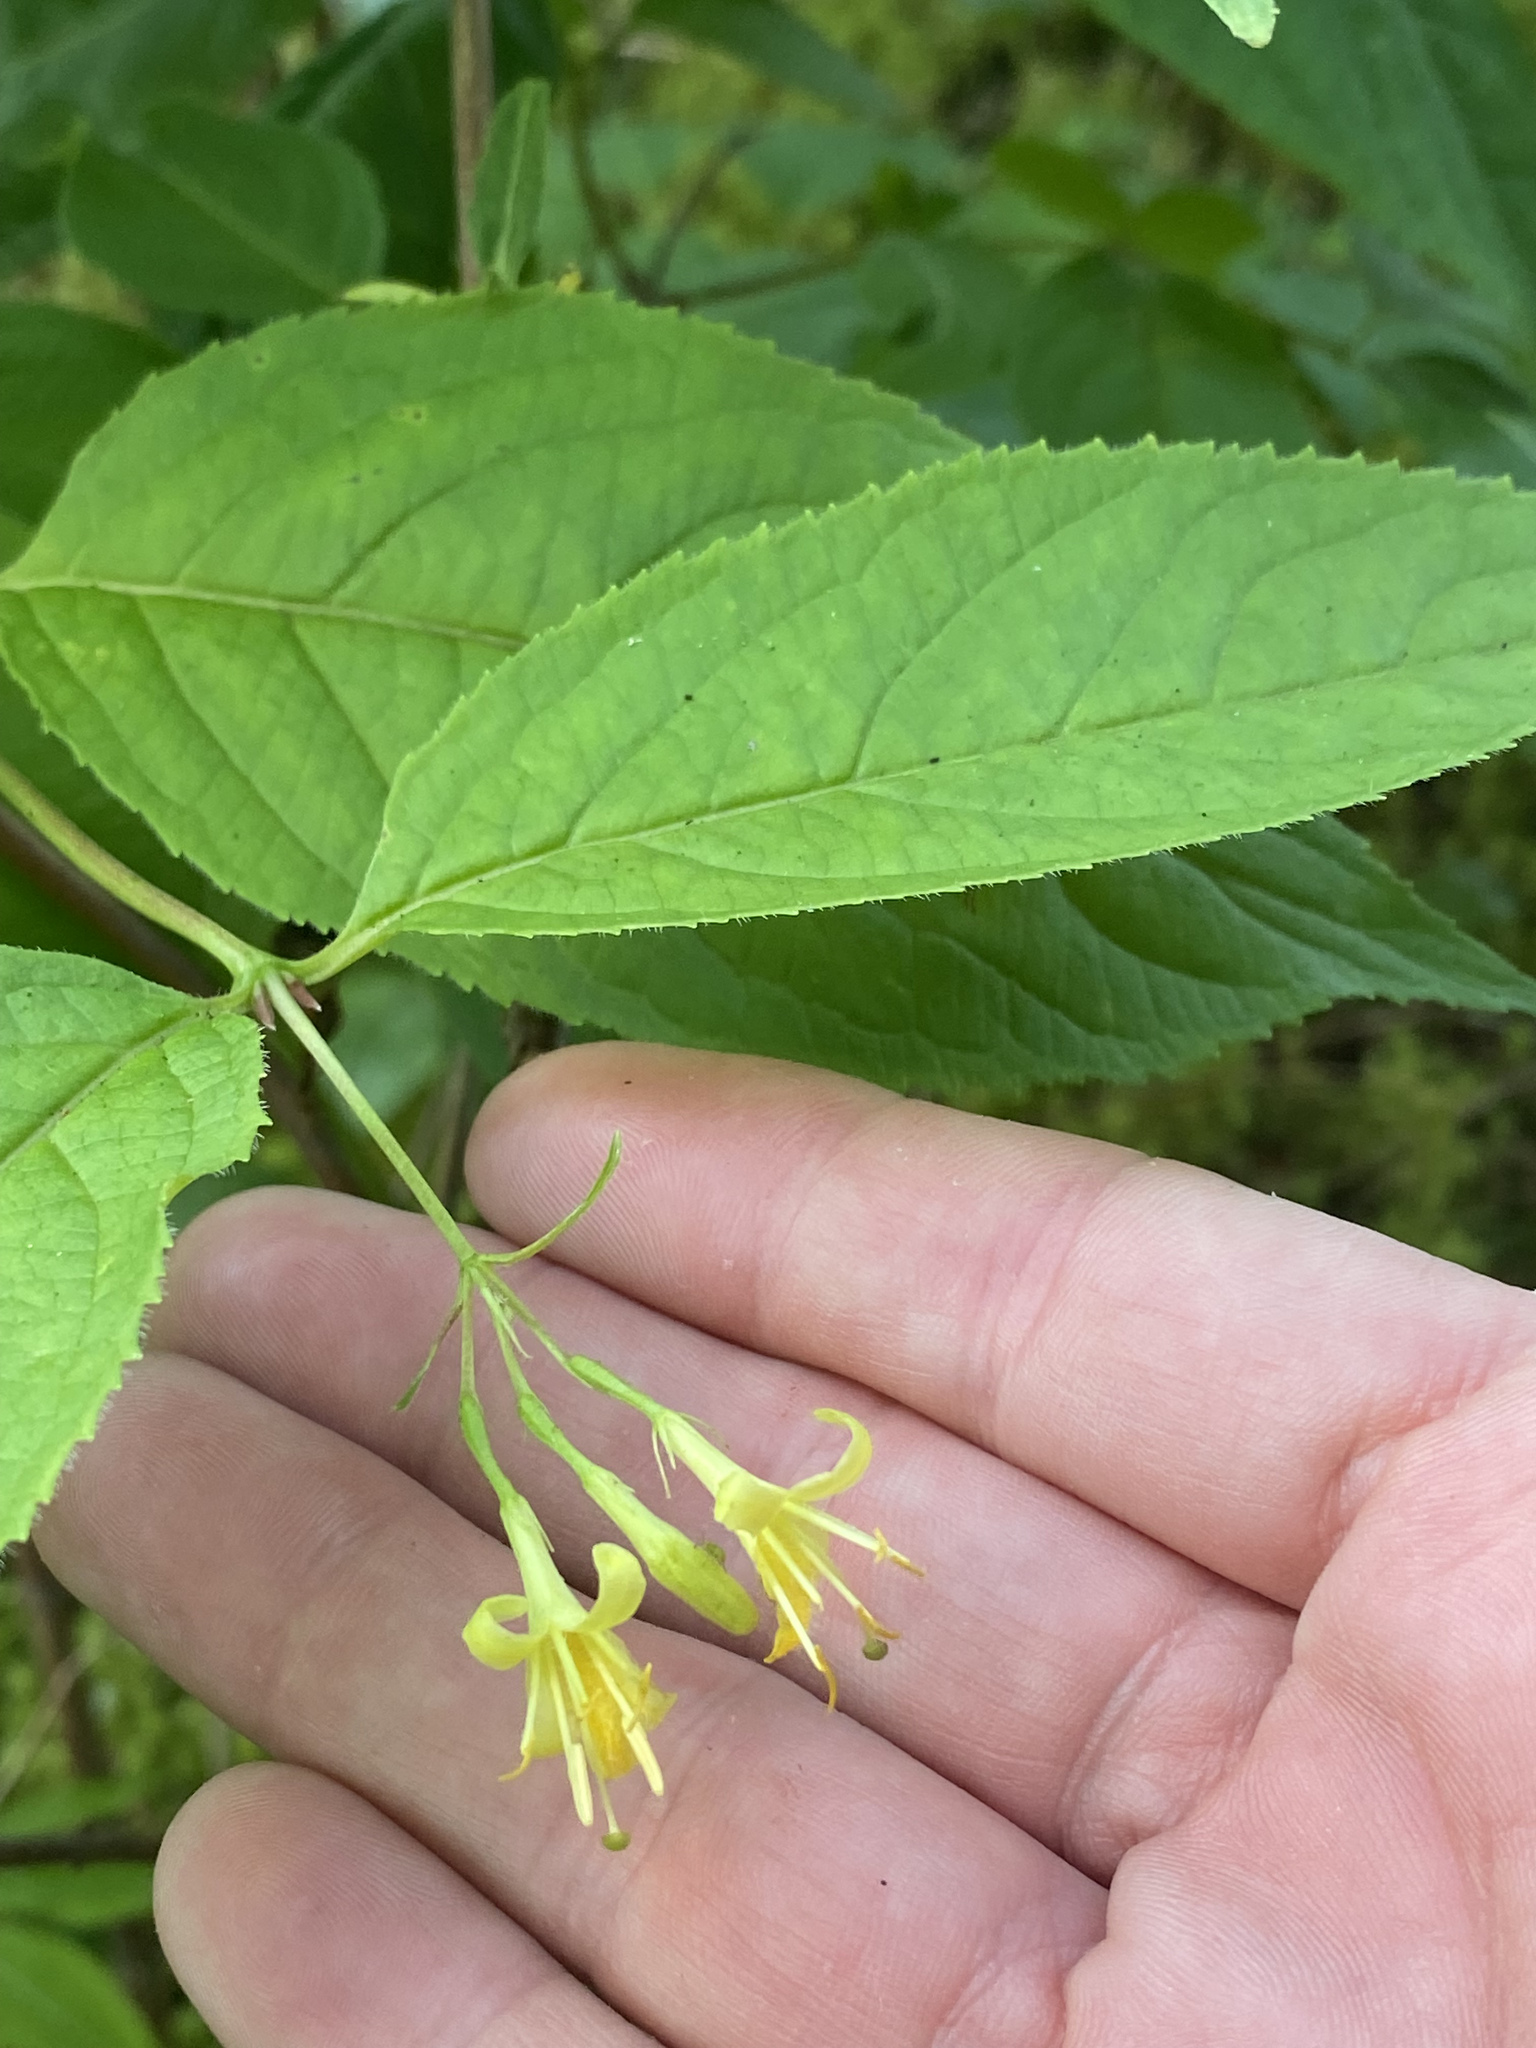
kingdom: Plantae
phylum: Tracheophyta
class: Magnoliopsida
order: Dipsacales
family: Caprifoliaceae
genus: Diervilla
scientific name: Diervilla lonicera
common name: Bush-honeysuckle
